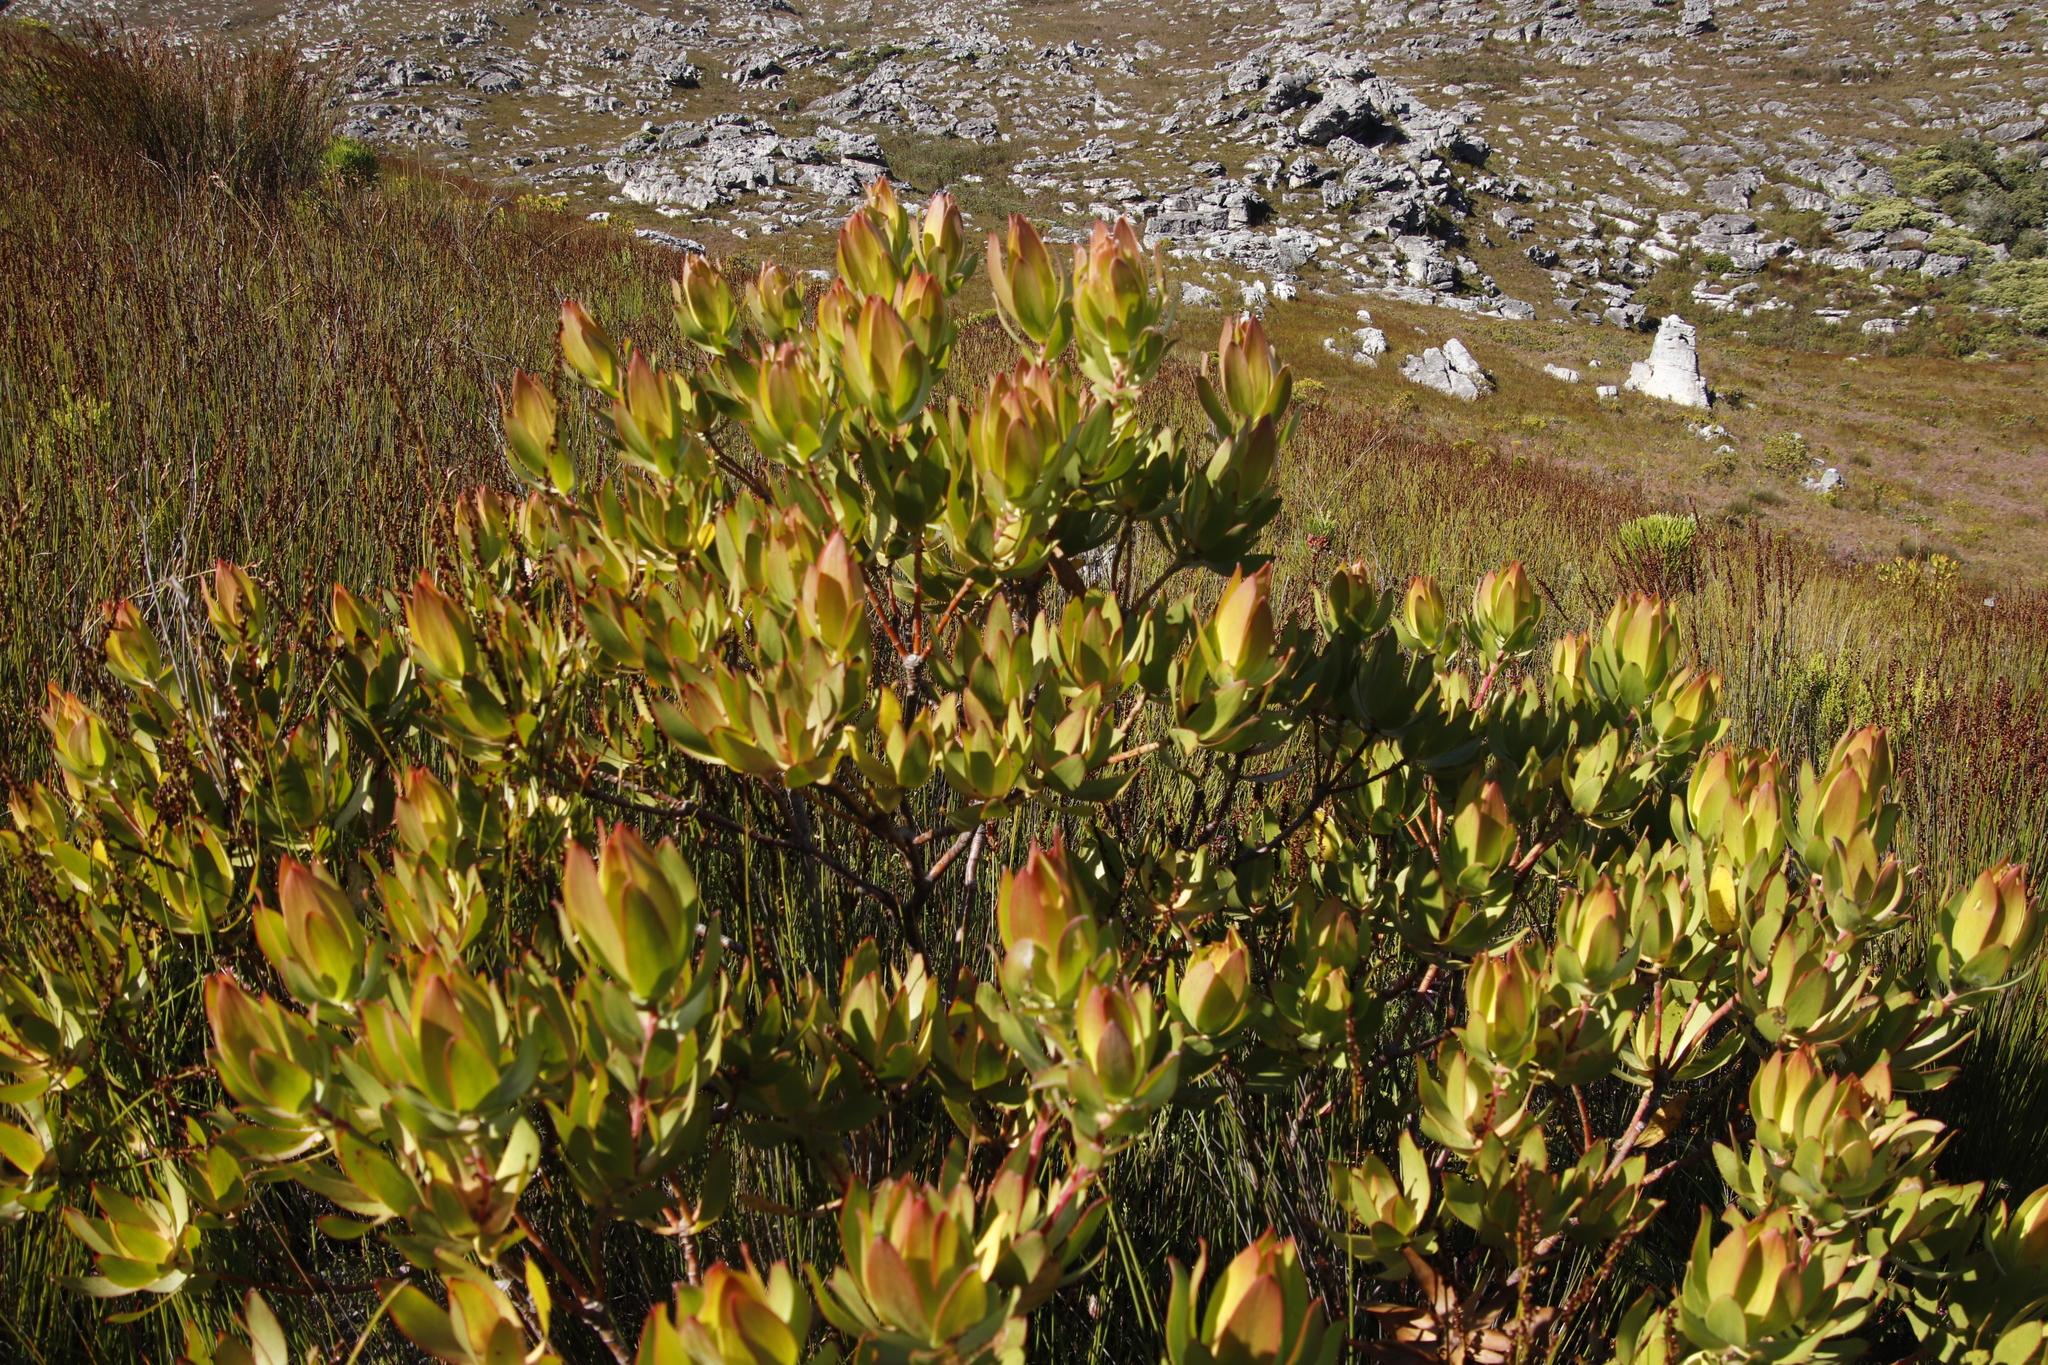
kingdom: Plantae
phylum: Tracheophyta
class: Magnoliopsida
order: Proteales
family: Proteaceae
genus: Leucadendron
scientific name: Leucadendron gandogeri
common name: Broad-leaf conebush
